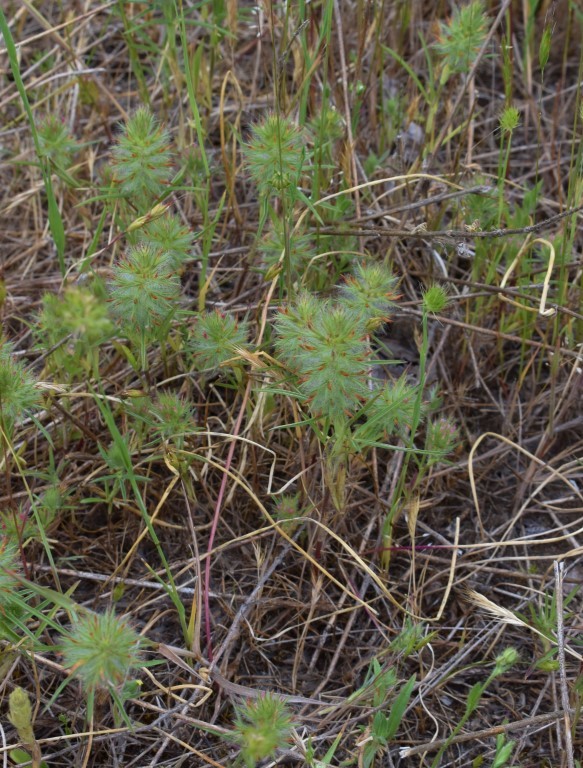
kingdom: Plantae
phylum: Tracheophyta
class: Magnoliopsida
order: Fabales
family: Fabaceae
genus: Trifolium
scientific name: Trifolium angustifolium
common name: Narrow clover
